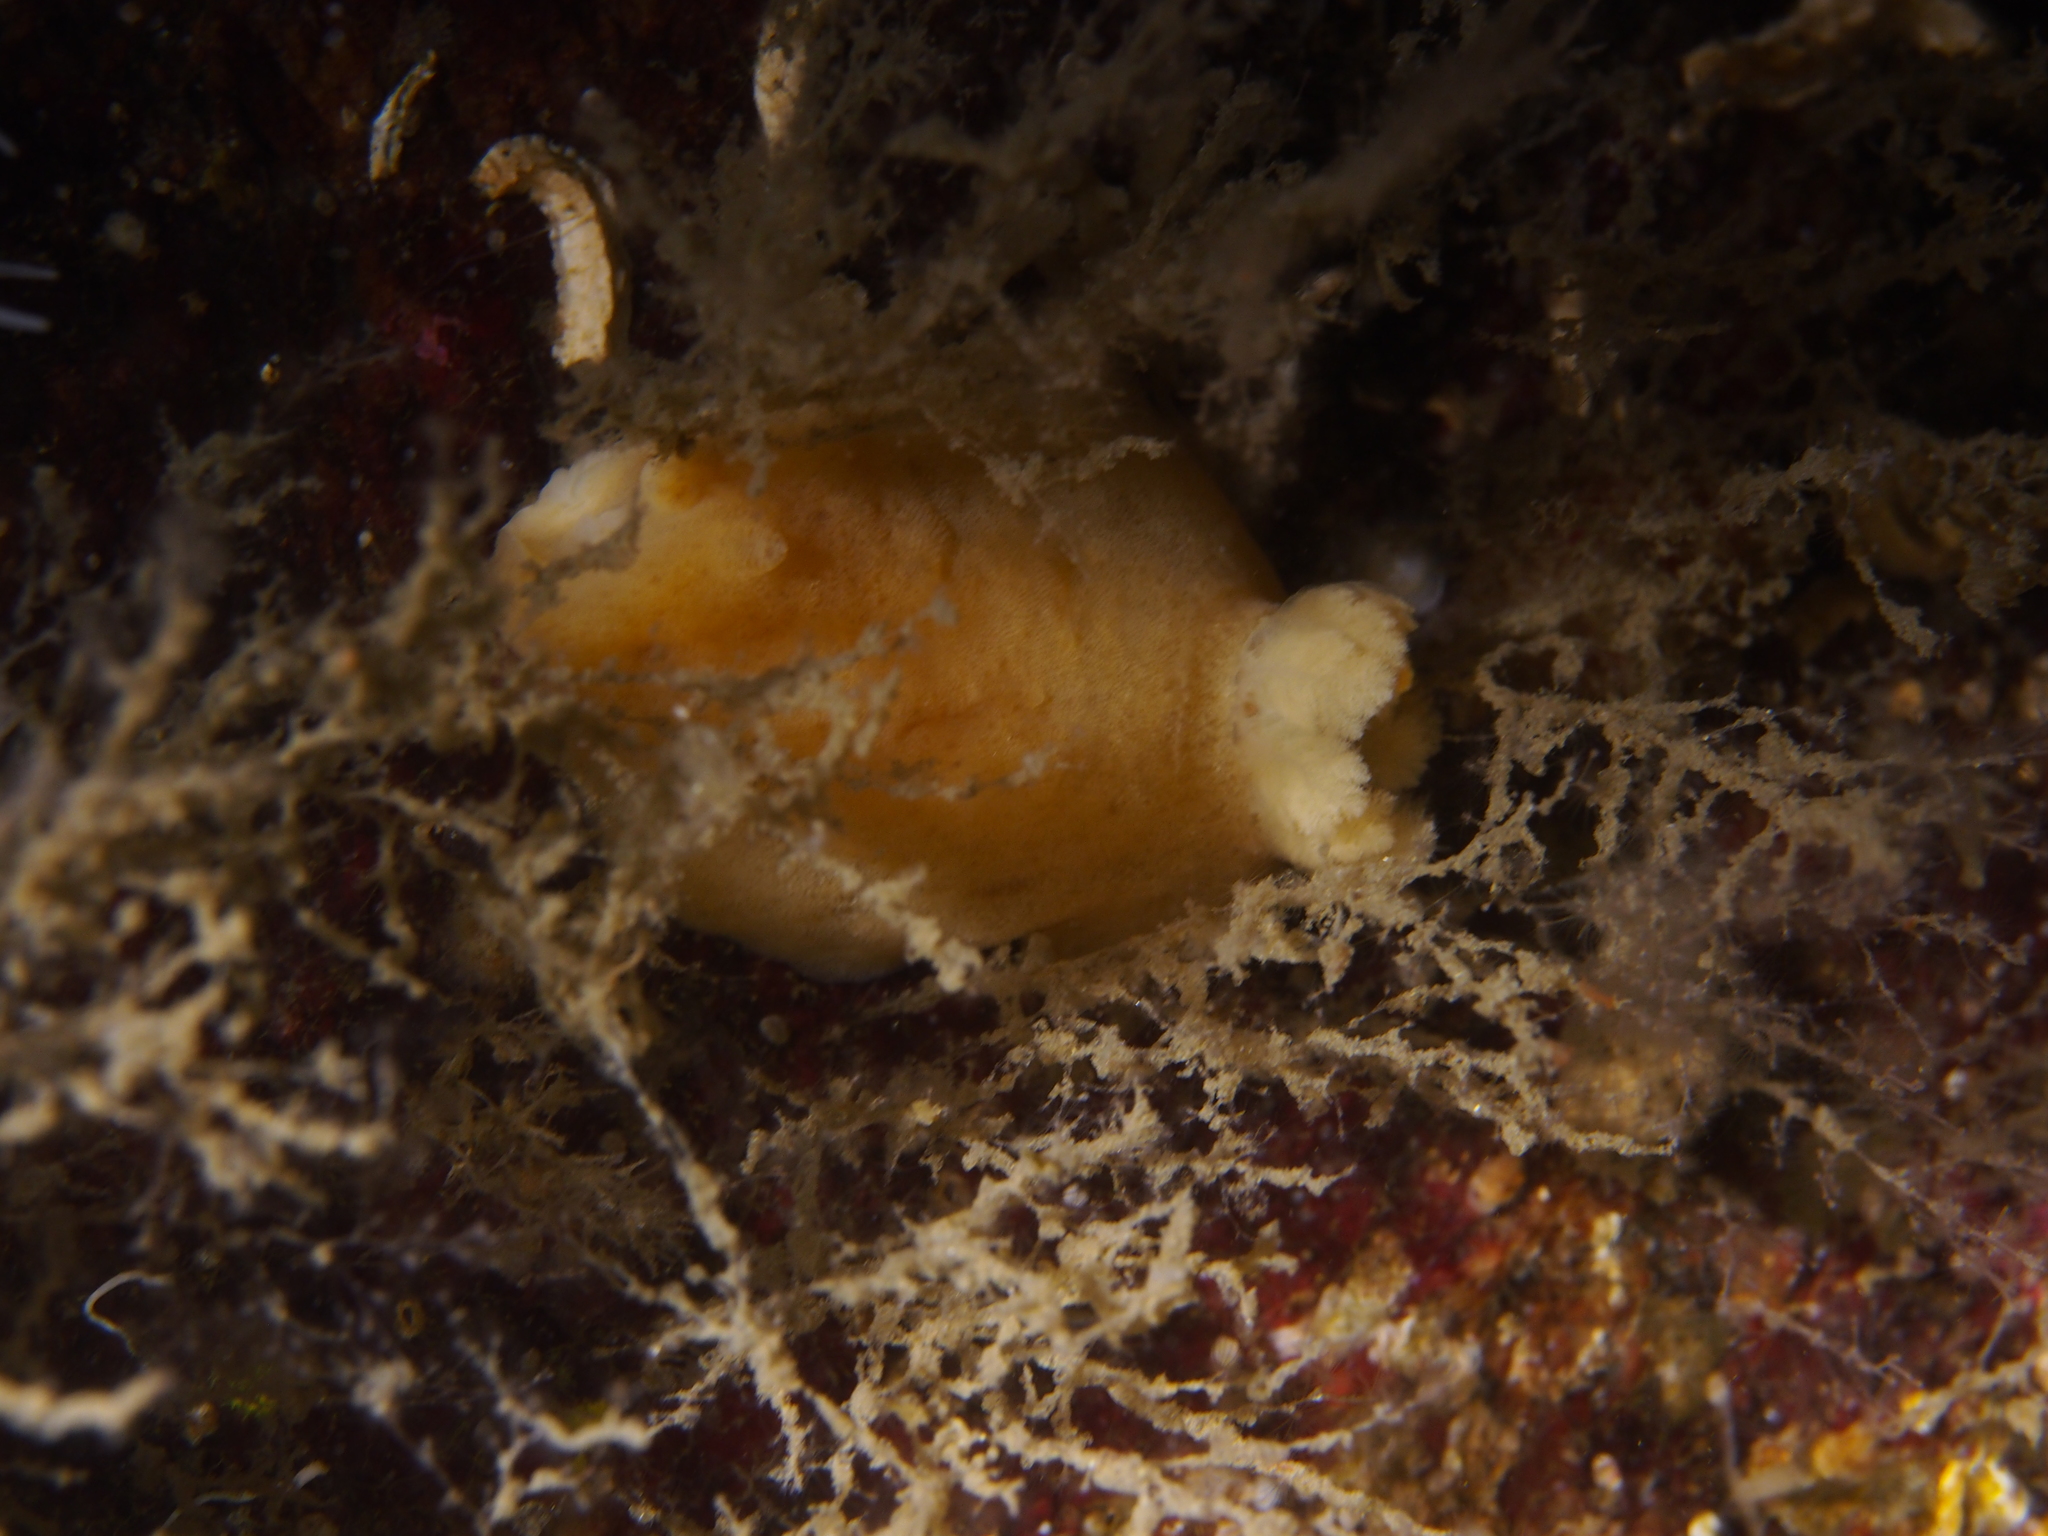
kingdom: Animalia
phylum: Mollusca
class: Gastropoda
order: Nudibranchia
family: Discodorididae
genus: Jorunna
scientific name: Jorunna tomentosa
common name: Grey sea slug
